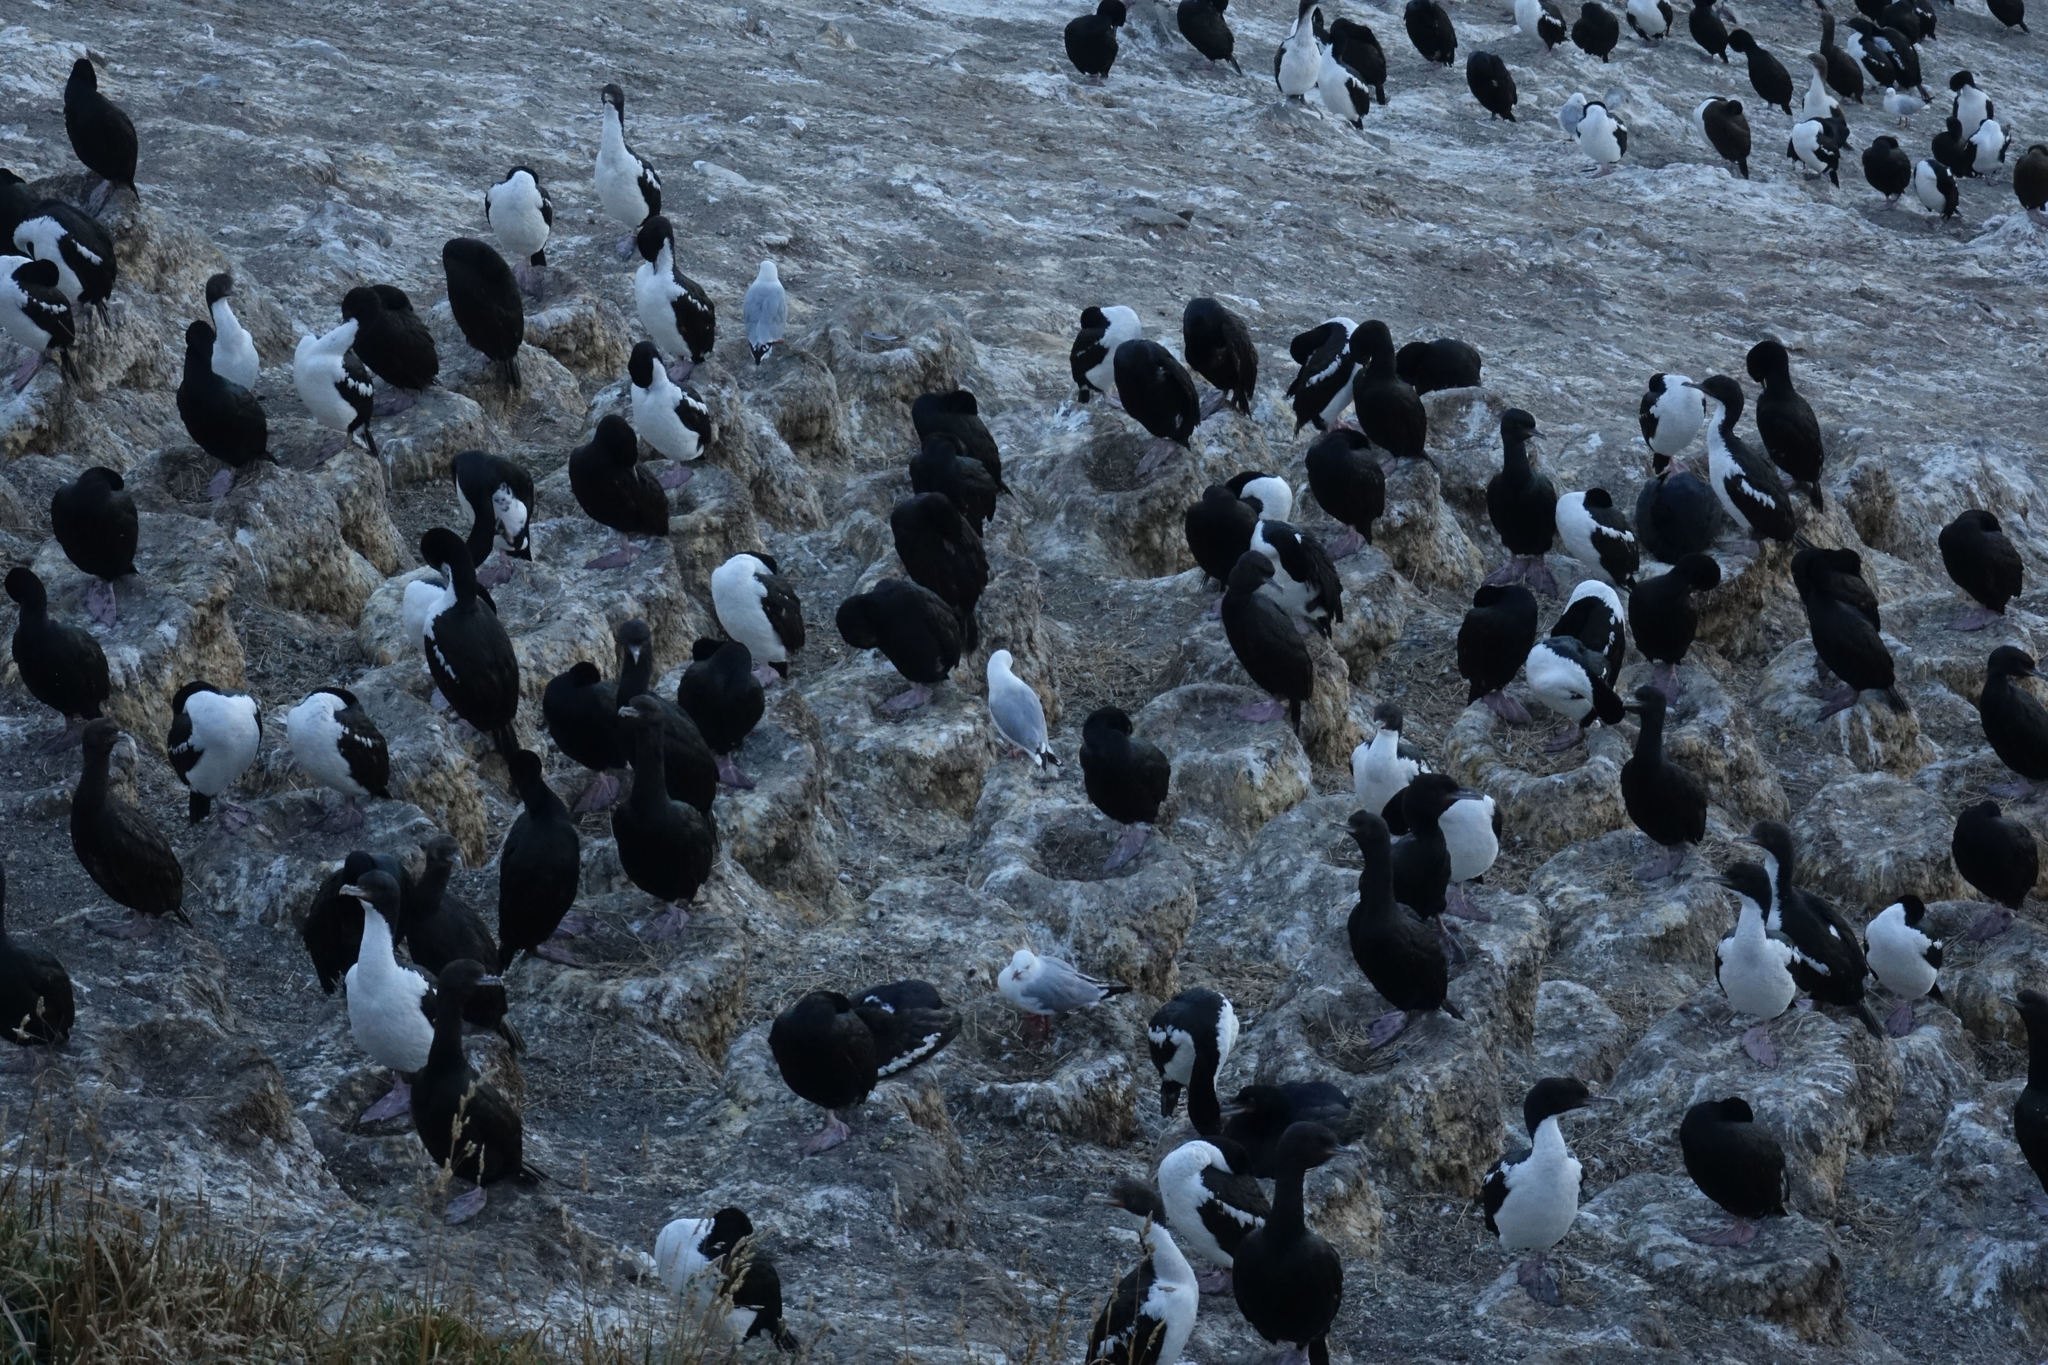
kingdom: Animalia
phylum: Chordata
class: Aves
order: Suliformes
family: Phalacrocoracidae
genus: Leucocarbo
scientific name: Leucocarbo chalconotus
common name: Stewart shag
